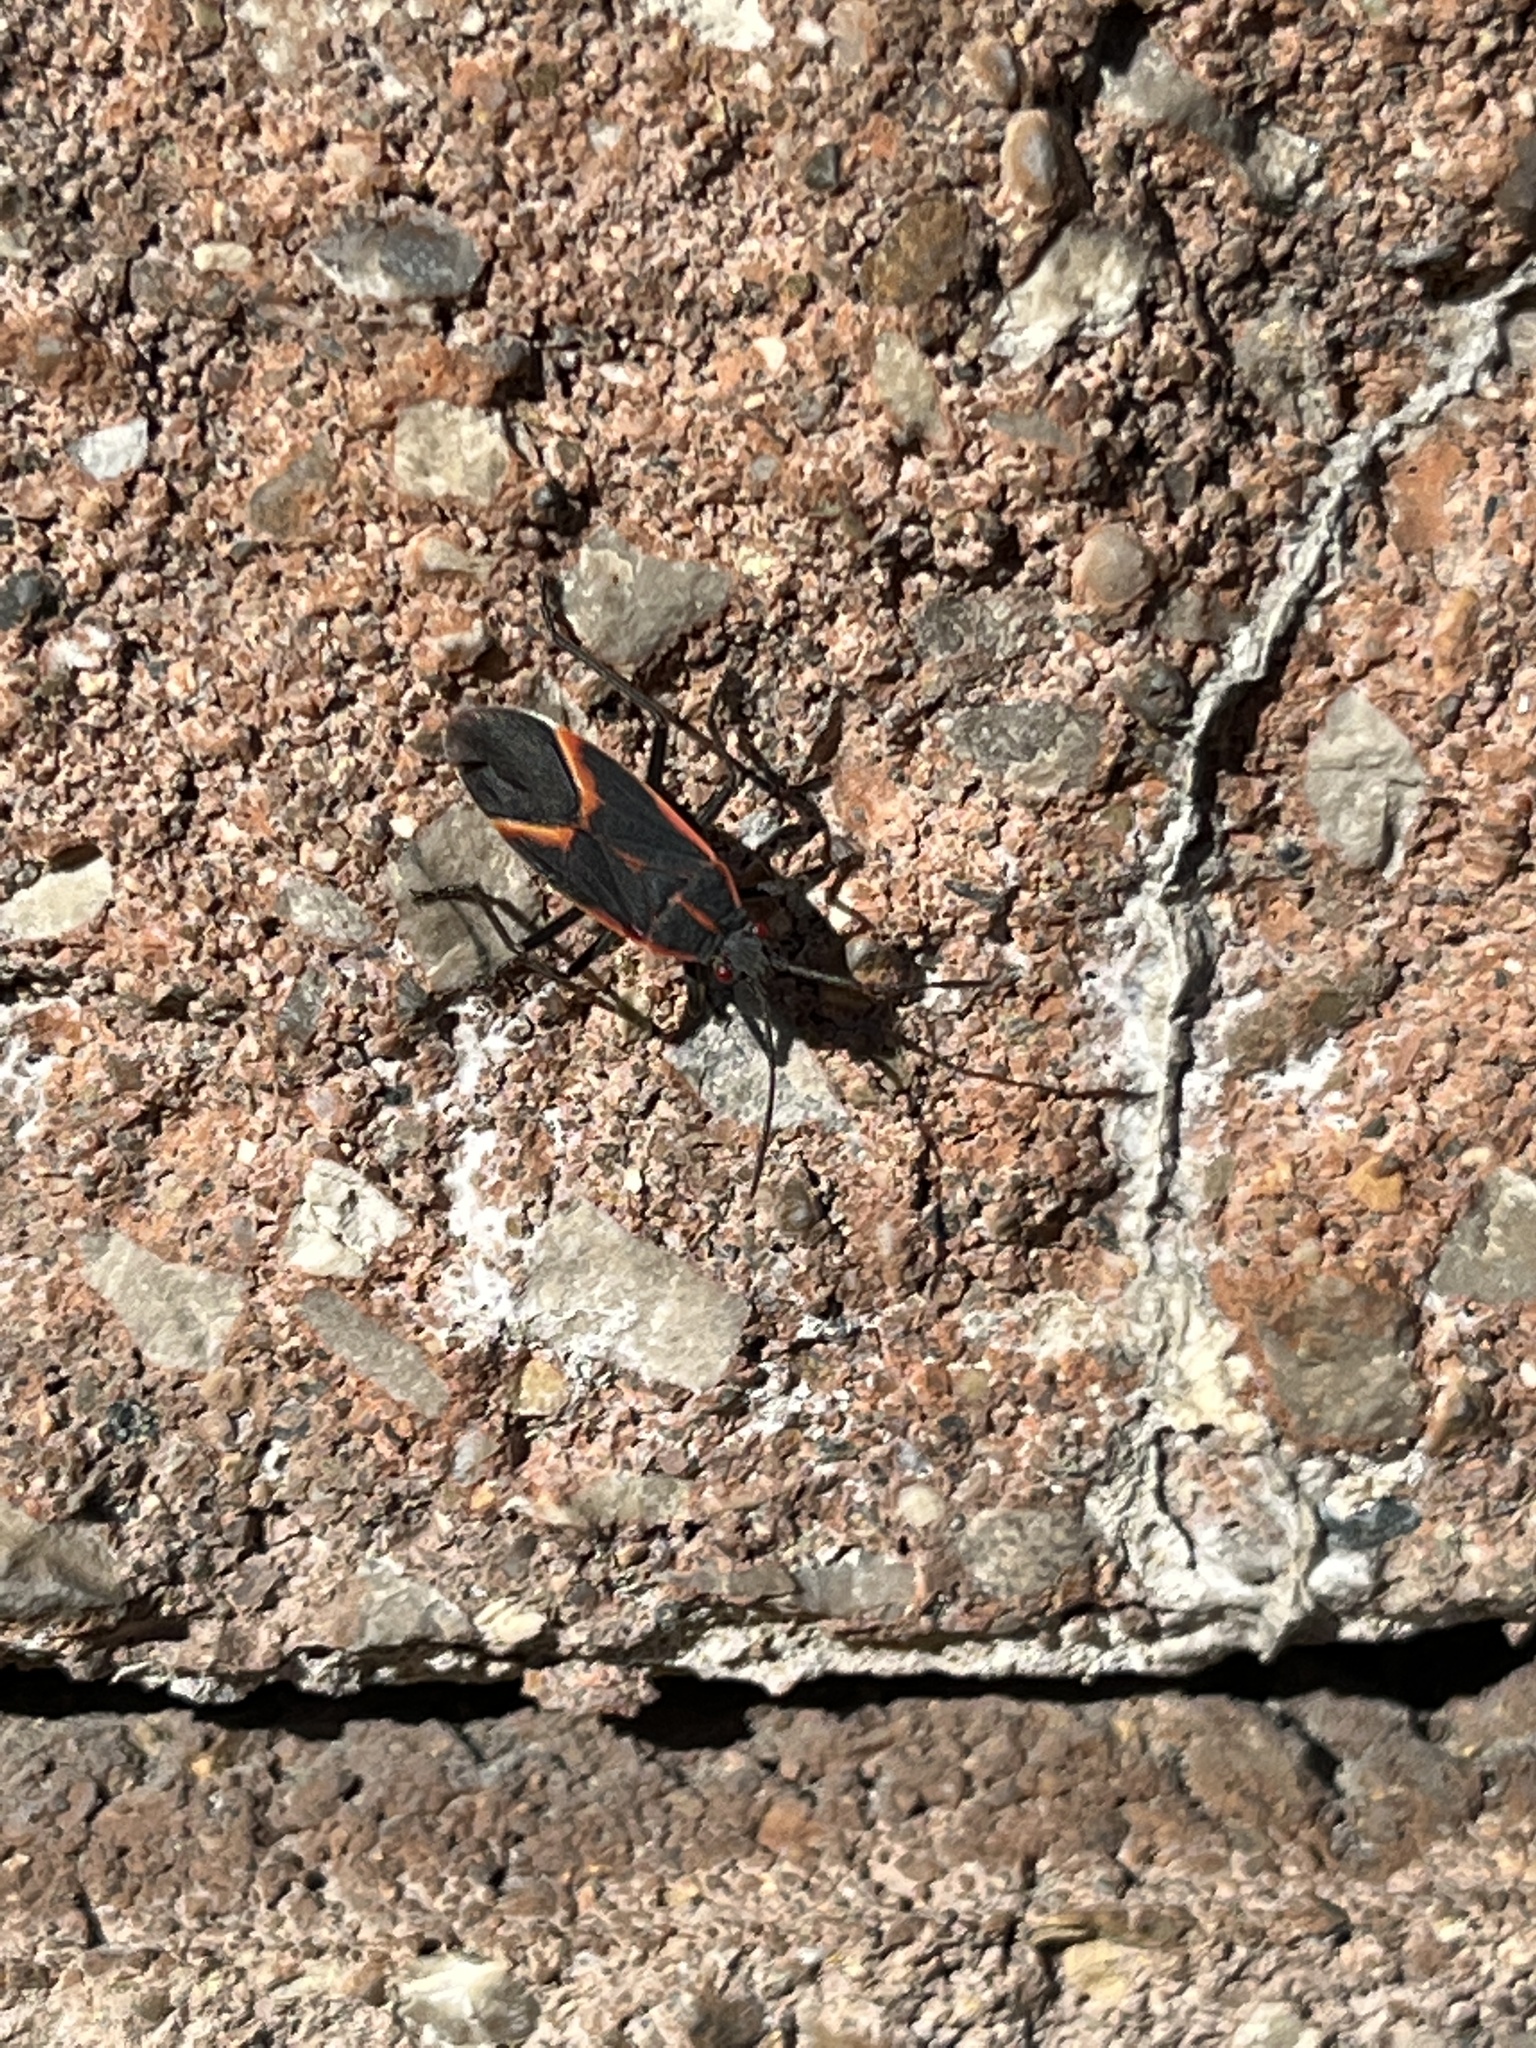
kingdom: Animalia
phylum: Arthropoda
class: Insecta
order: Hemiptera
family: Rhopalidae
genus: Boisea
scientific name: Boisea trivittata
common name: Boxelder bug
